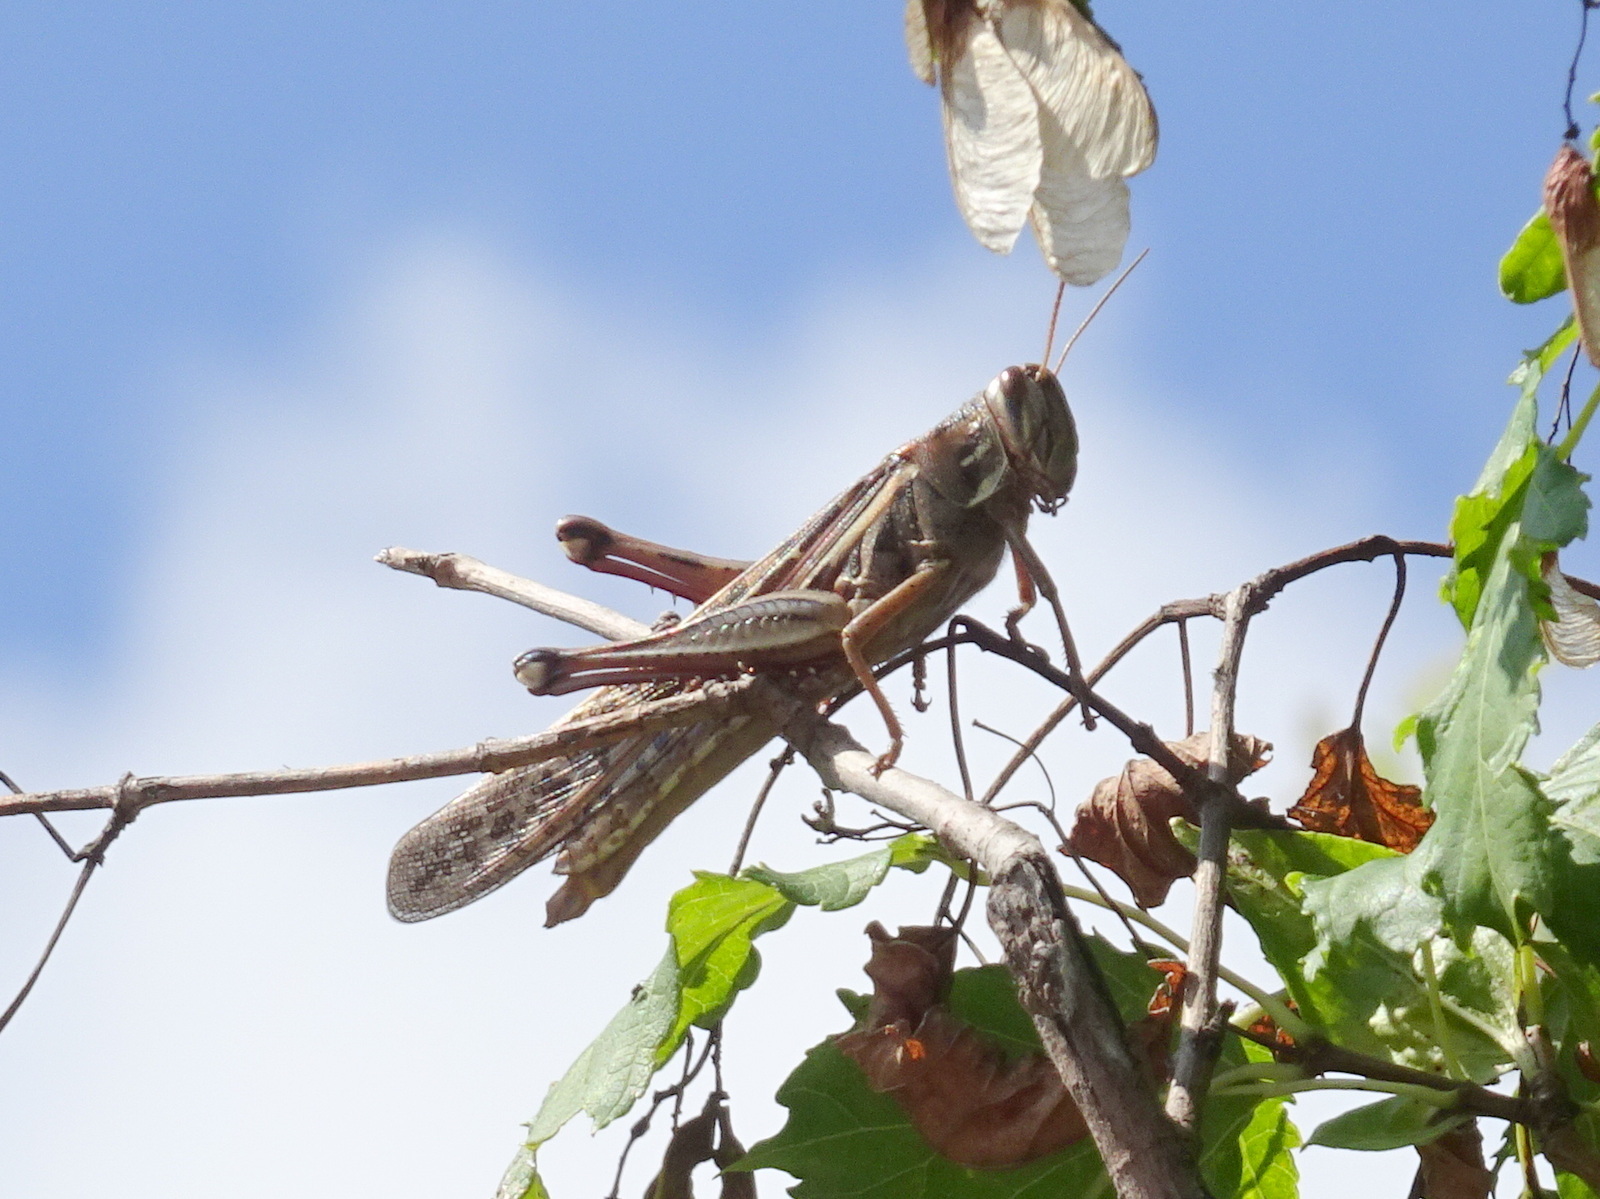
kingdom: Animalia
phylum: Arthropoda
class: Insecta
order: Orthoptera
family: Acrididae
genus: Schistocerca
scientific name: Schistocerca americana
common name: American bird locust
